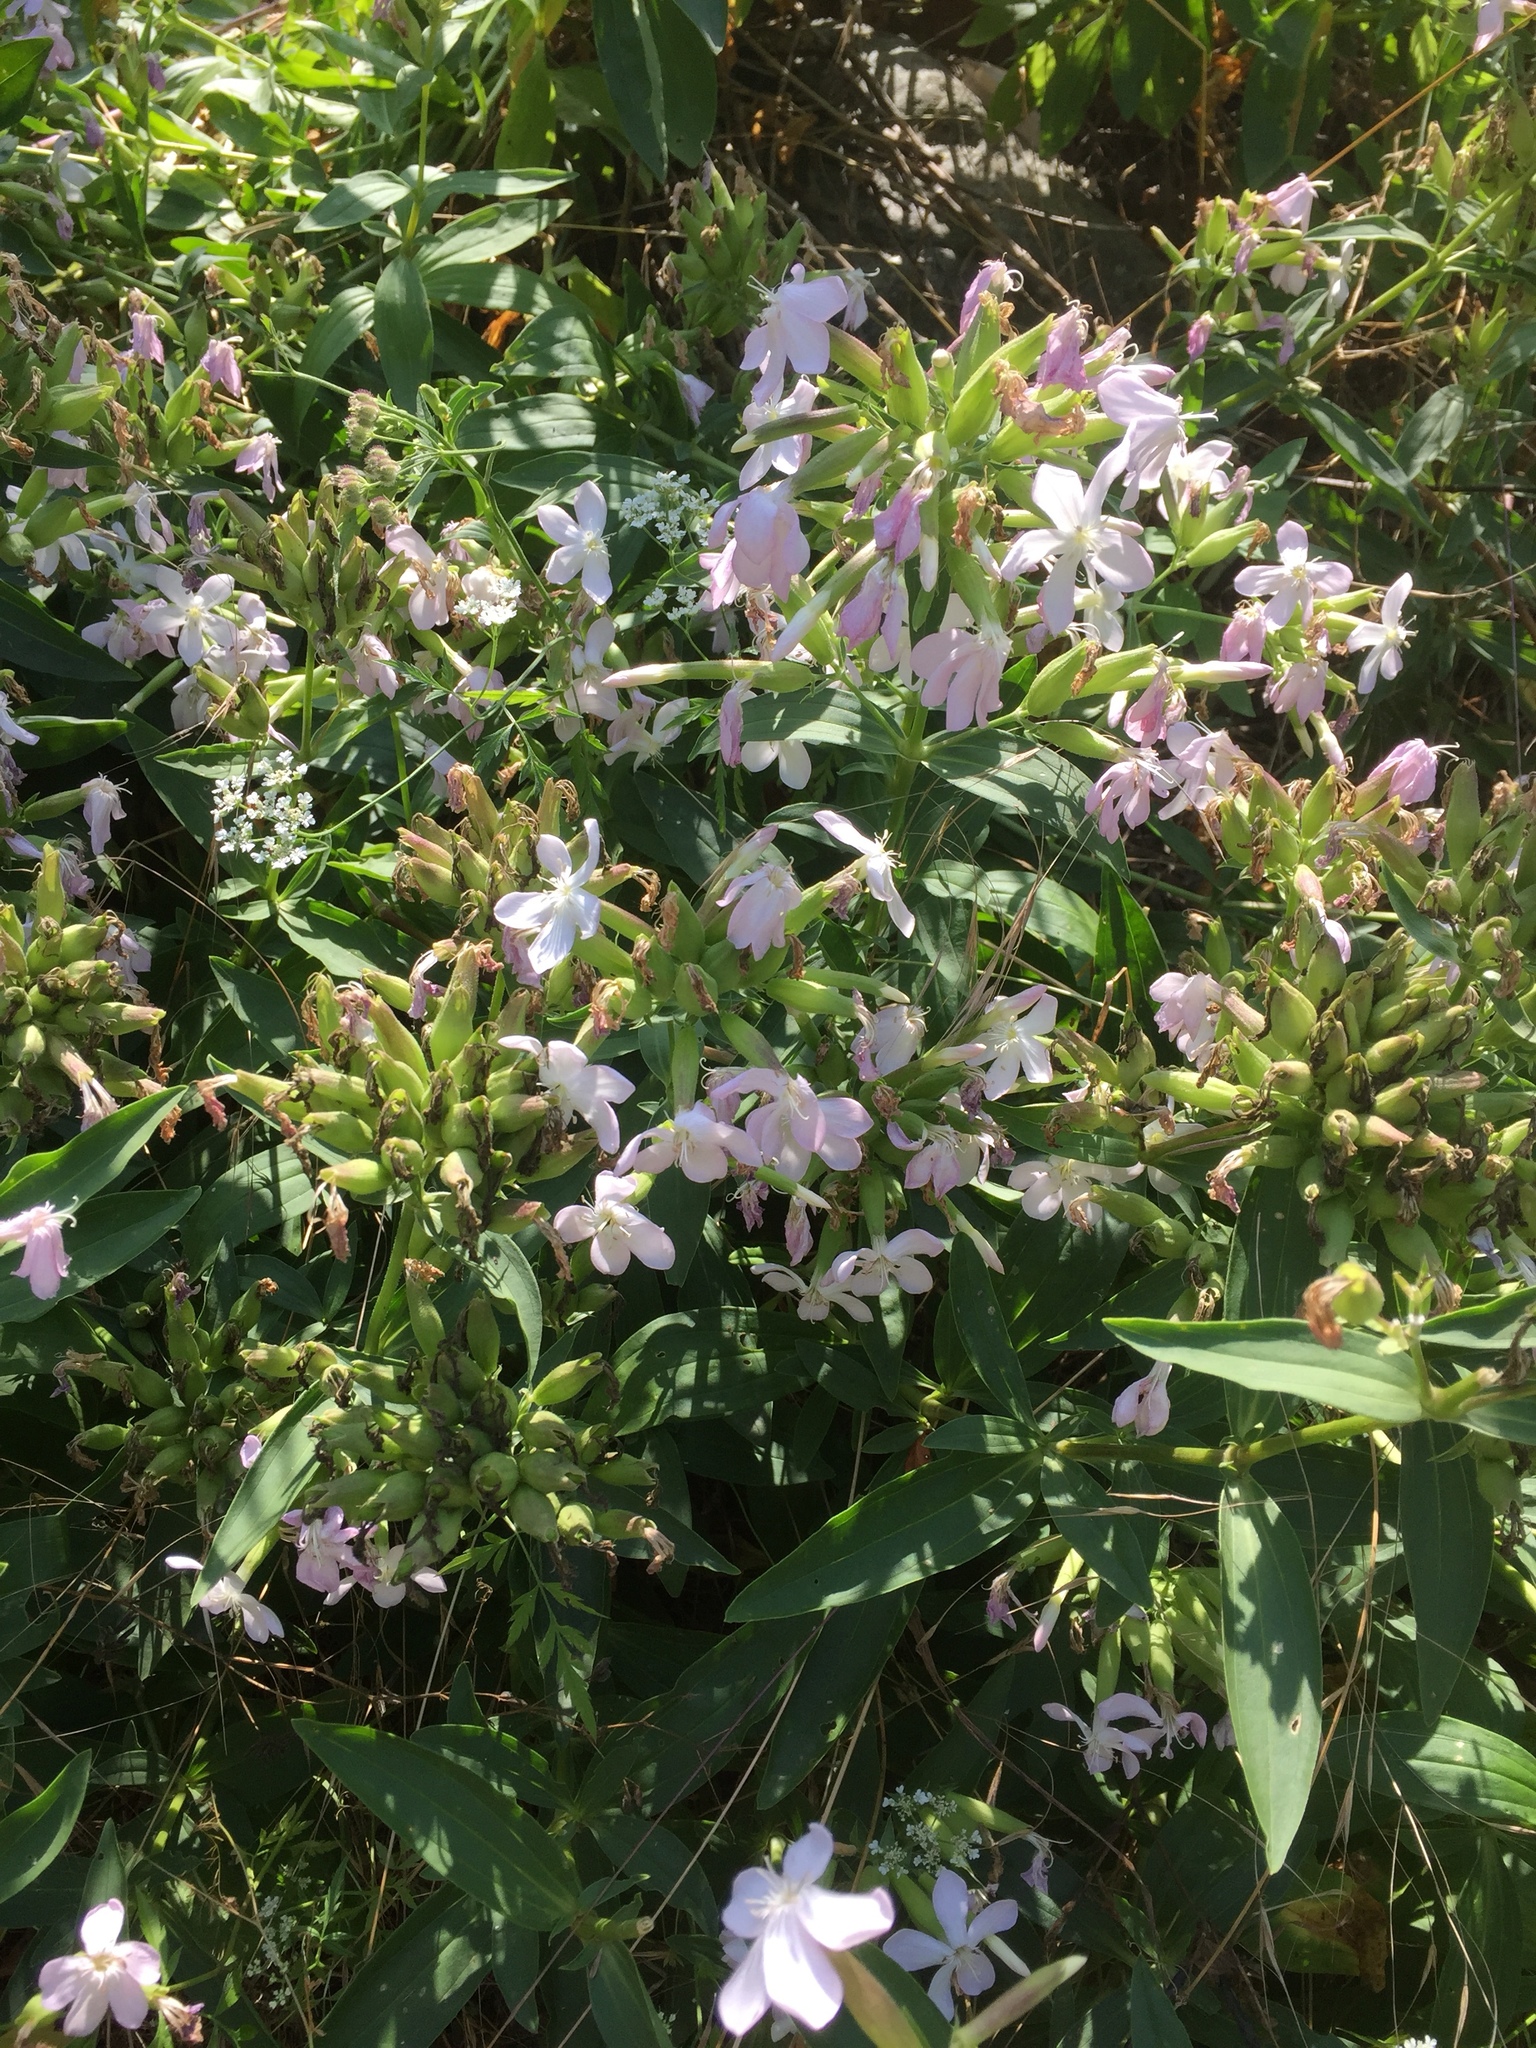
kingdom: Plantae
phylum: Tracheophyta
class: Magnoliopsida
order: Caryophyllales
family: Caryophyllaceae
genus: Saponaria
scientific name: Saponaria officinalis
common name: Soapwort
